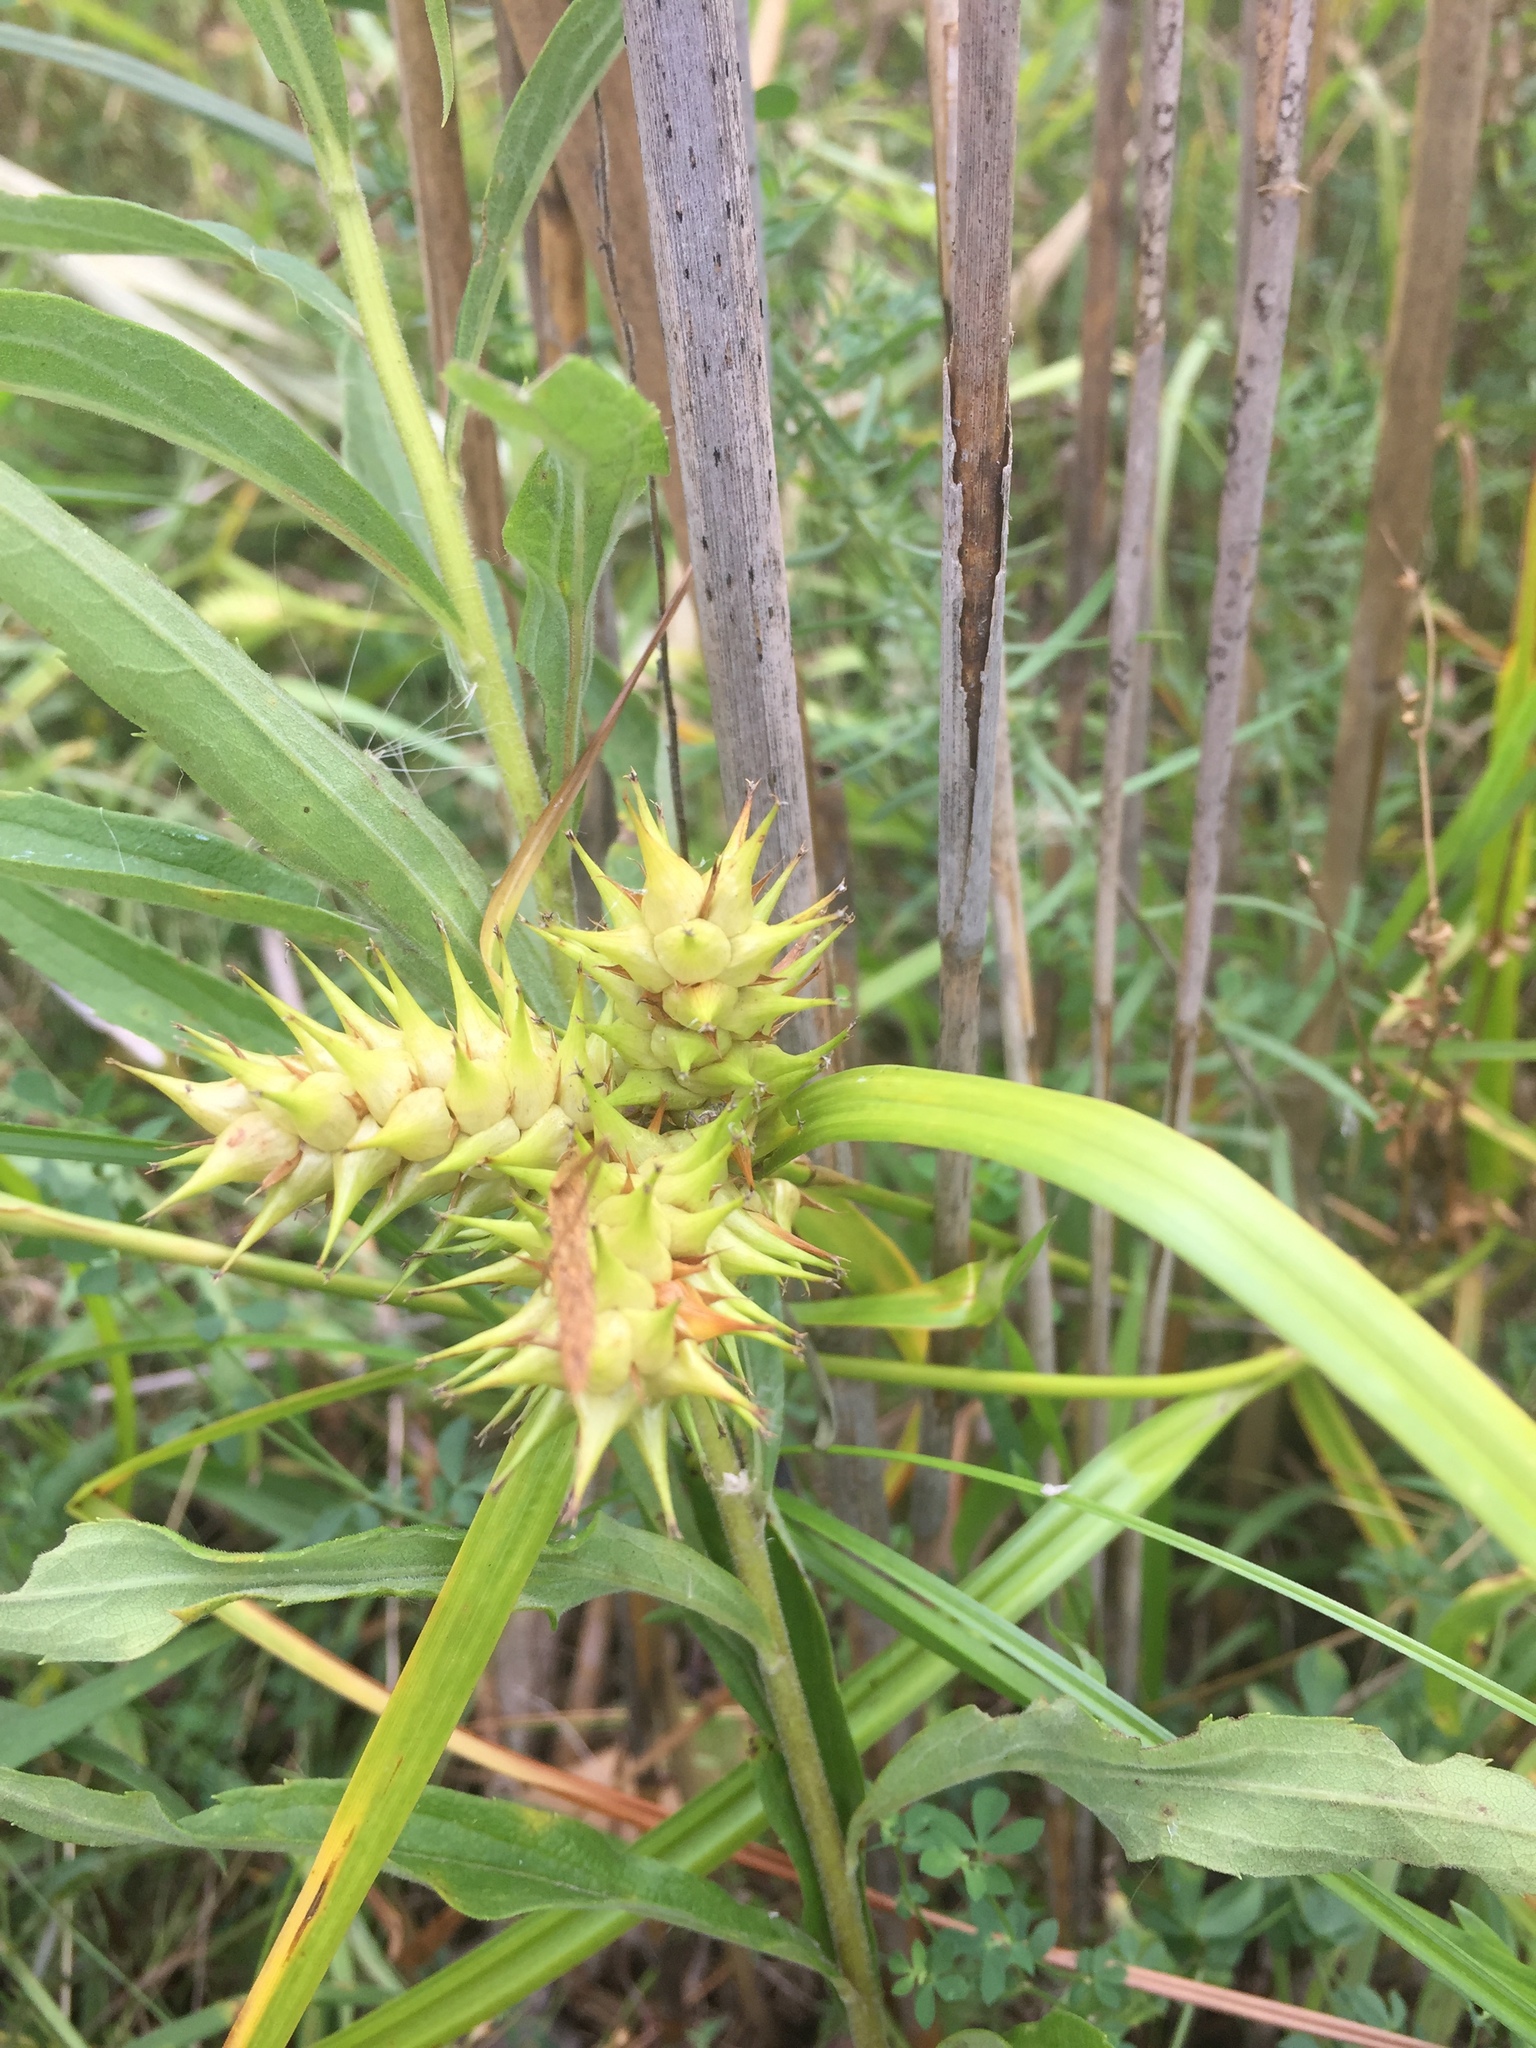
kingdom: Plantae
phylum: Tracheophyta
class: Liliopsida
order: Poales
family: Cyperaceae
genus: Carex
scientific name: Carex lupulina
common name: Hop sedge
